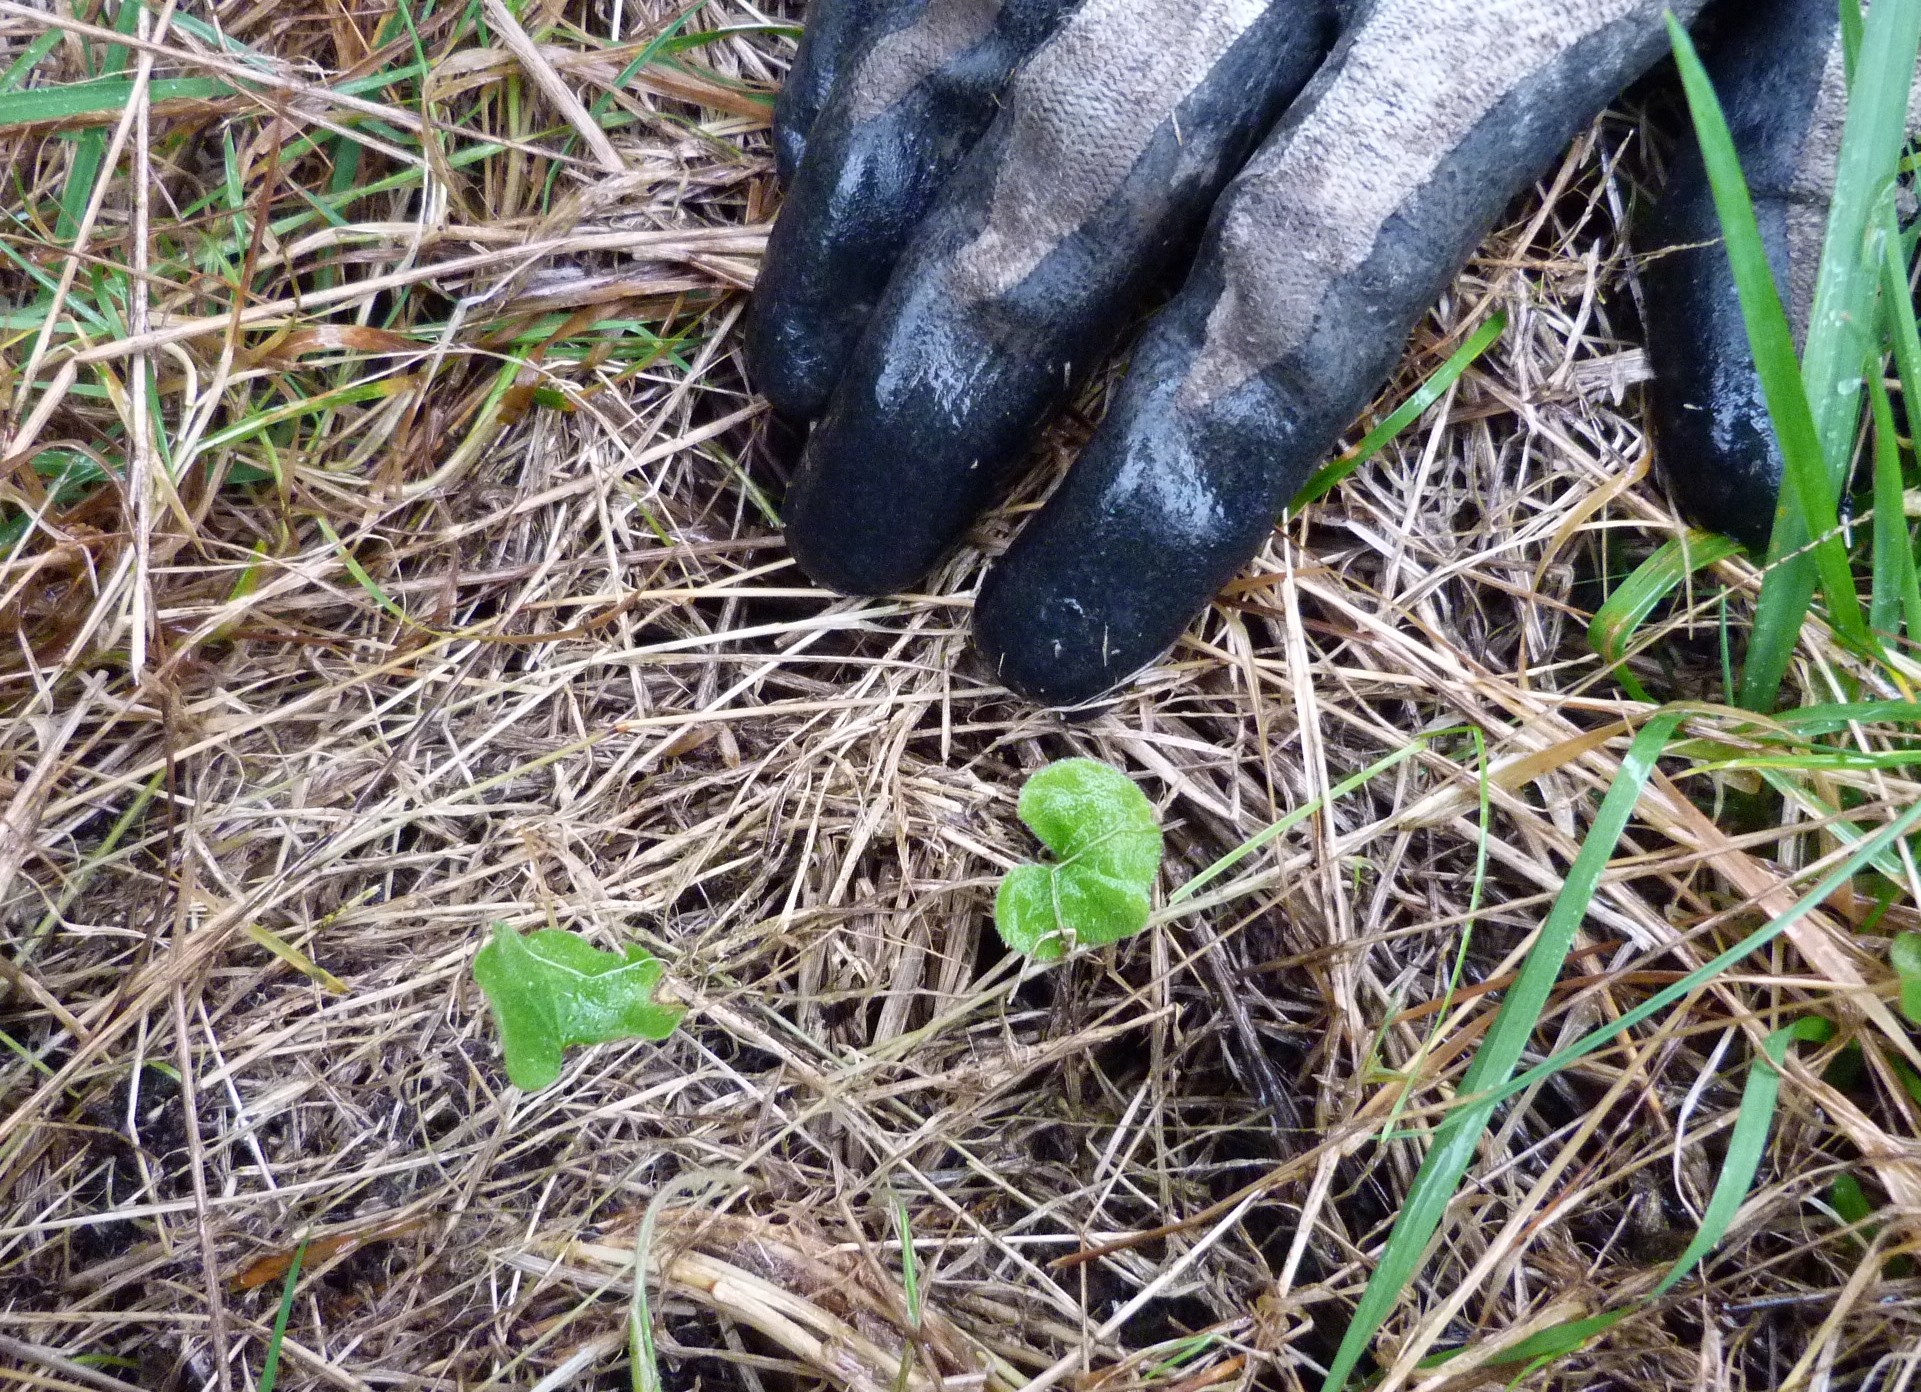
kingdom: Plantae
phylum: Tracheophyta
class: Magnoliopsida
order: Solanales
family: Convolvulaceae
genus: Dichondra
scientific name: Dichondra repens
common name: Kidneyweed
